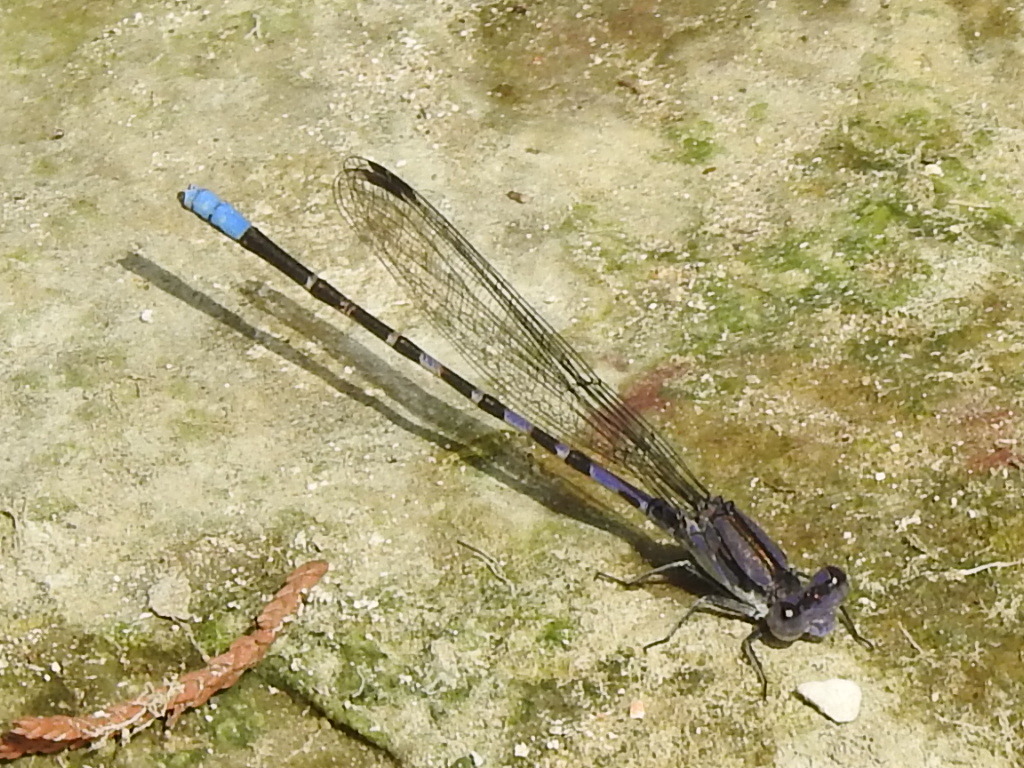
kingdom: Animalia
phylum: Arthropoda
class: Insecta
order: Odonata
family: Coenagrionidae
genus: Argia
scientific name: Argia immunda
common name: Kiowa dancer
